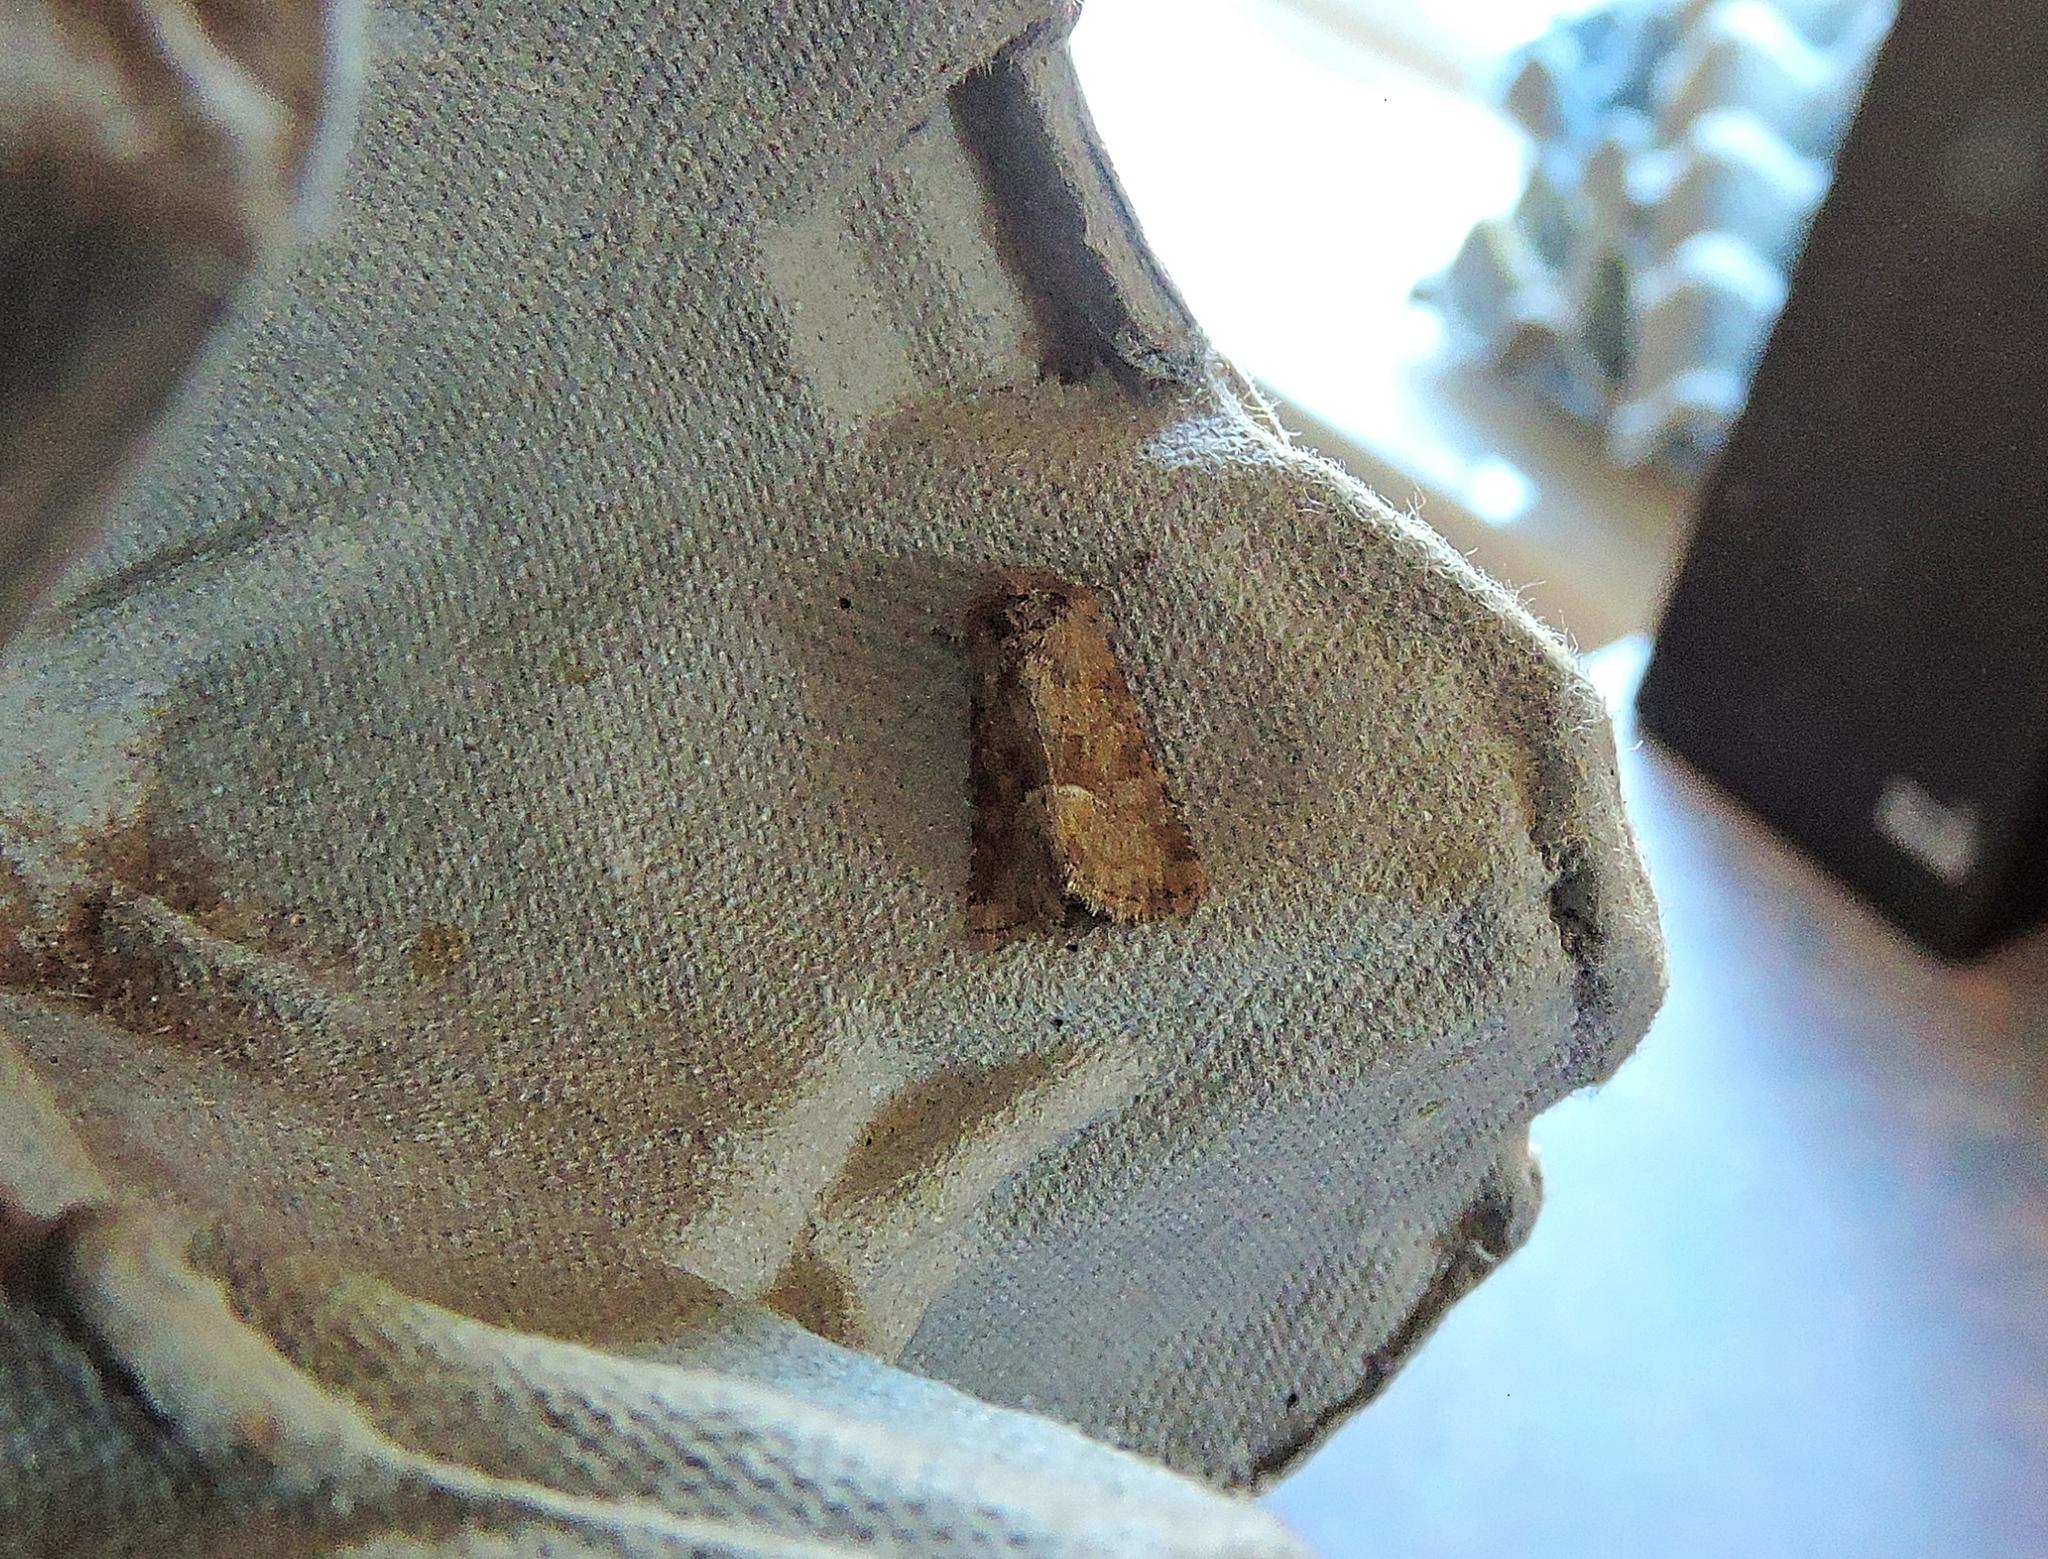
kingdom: Animalia
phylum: Arthropoda
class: Insecta
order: Lepidoptera
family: Noctuidae
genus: Oligia
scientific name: Oligia fasciuncula
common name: Middle-barred minor
